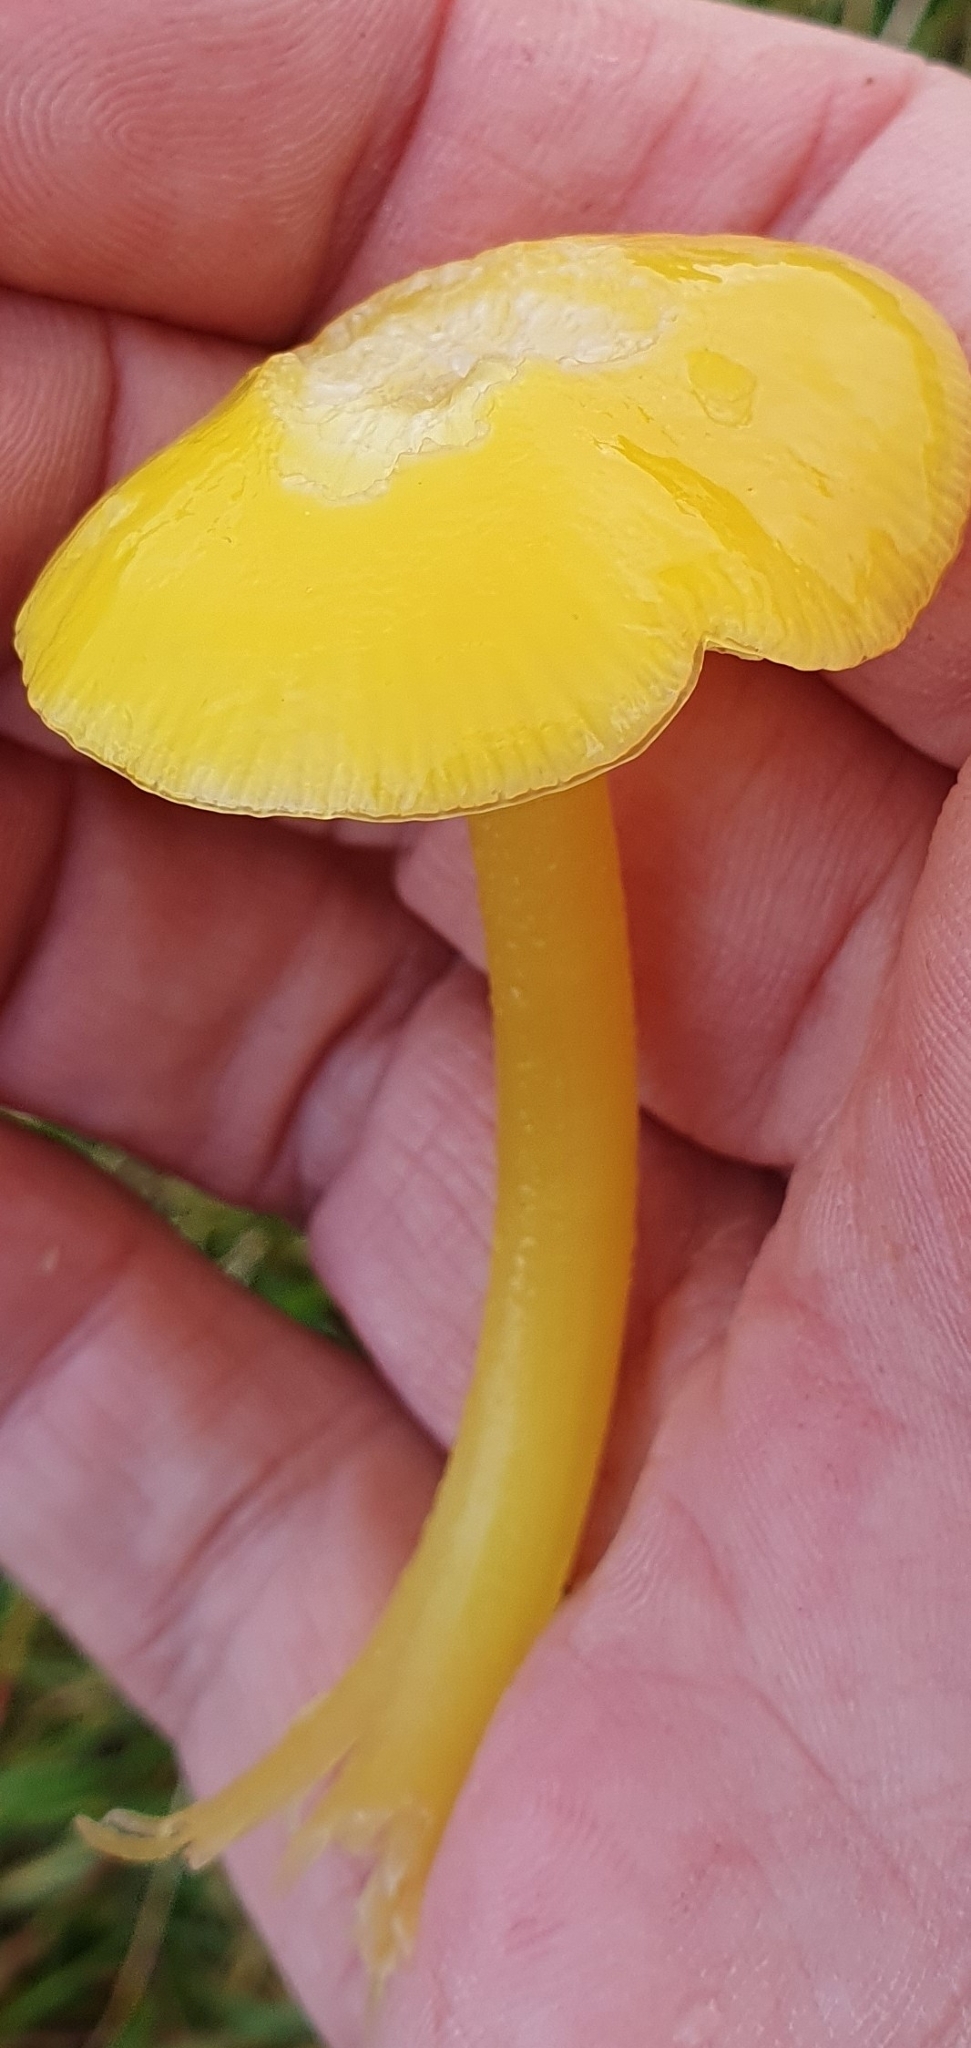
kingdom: Fungi
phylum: Basidiomycota
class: Agaricomycetes
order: Agaricales
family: Hygrophoraceae
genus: Hygrocybe
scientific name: Hygrocybe chlorophana
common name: Golden waxcap
